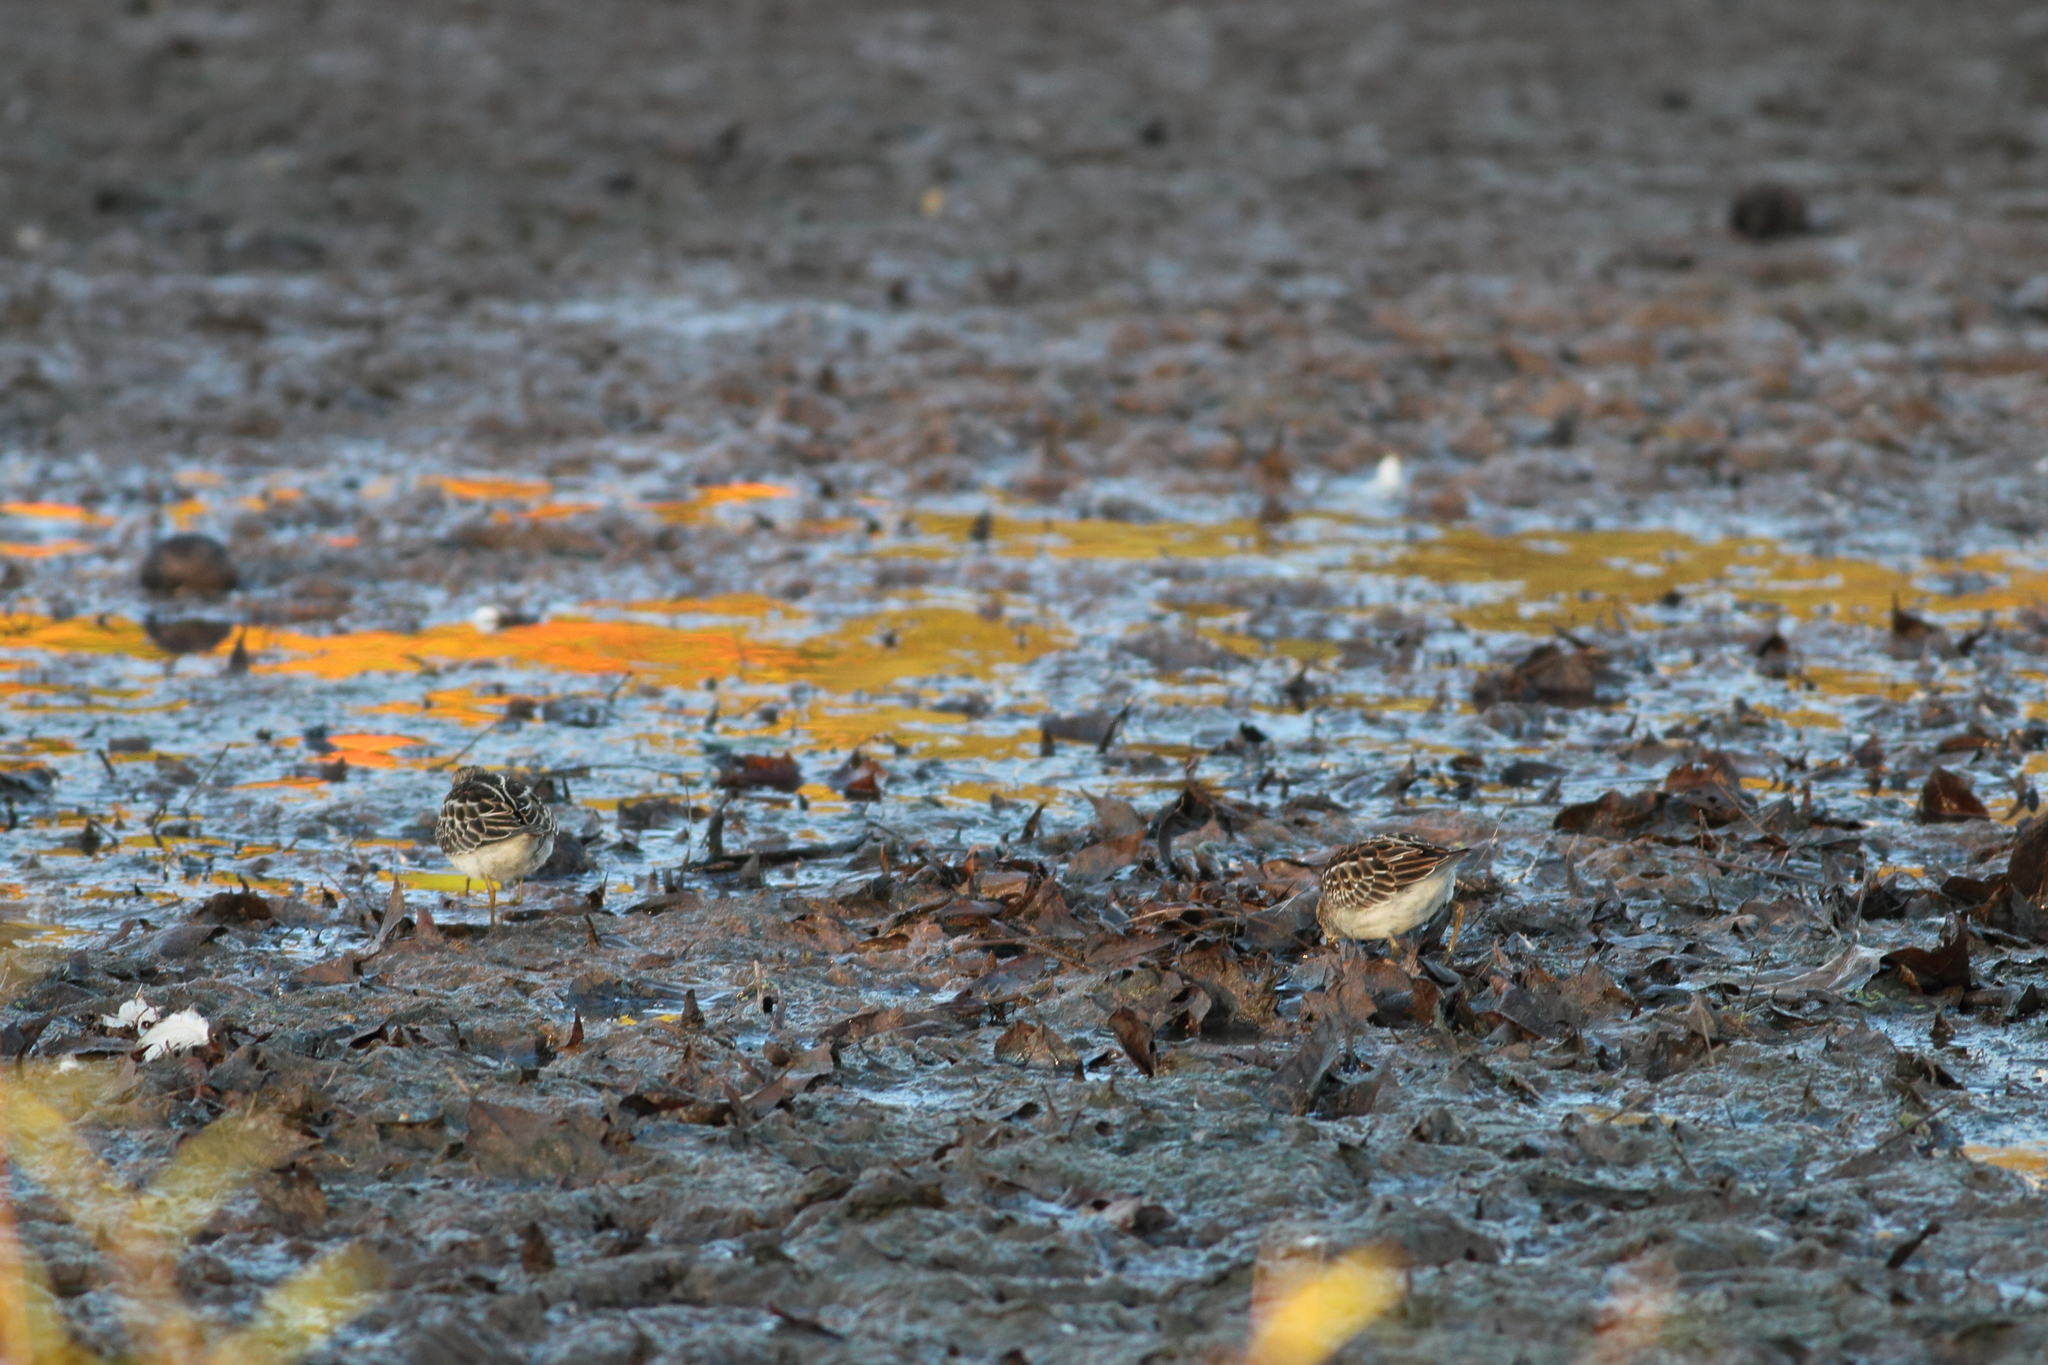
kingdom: Animalia
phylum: Chordata
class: Aves
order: Charadriiformes
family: Scolopacidae
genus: Calidris
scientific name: Calidris melanotos
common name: Pectoral sandpiper
